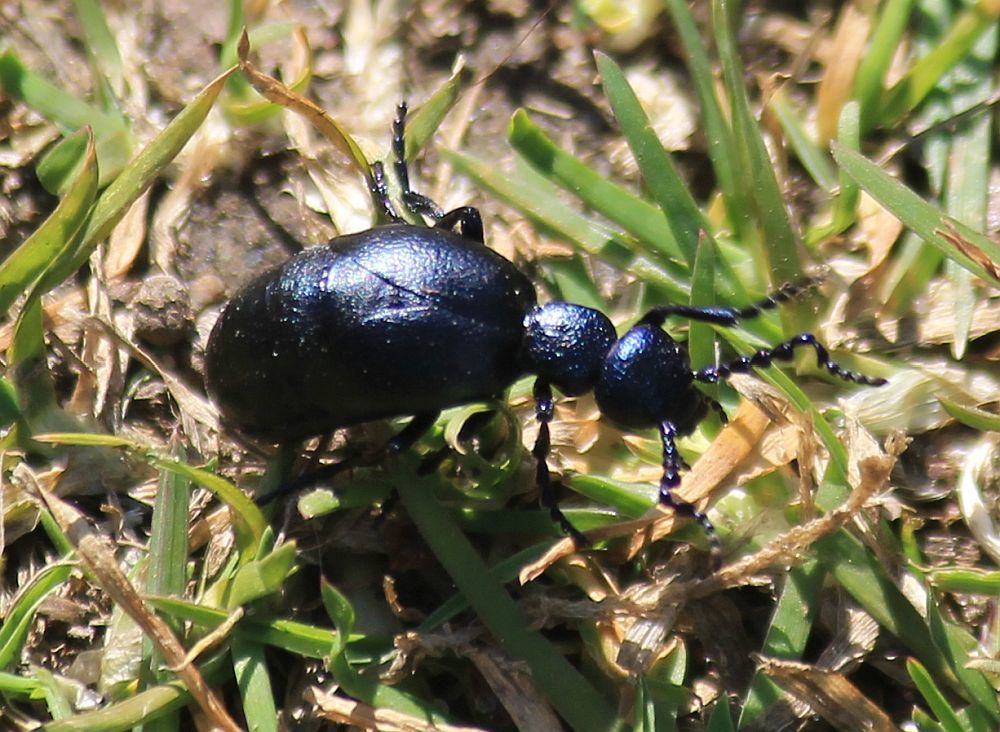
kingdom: Animalia
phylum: Arthropoda
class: Insecta
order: Coleoptera
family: Meloidae
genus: Meloe
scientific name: Meloe proscarabaeus
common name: Black oil-beetle
